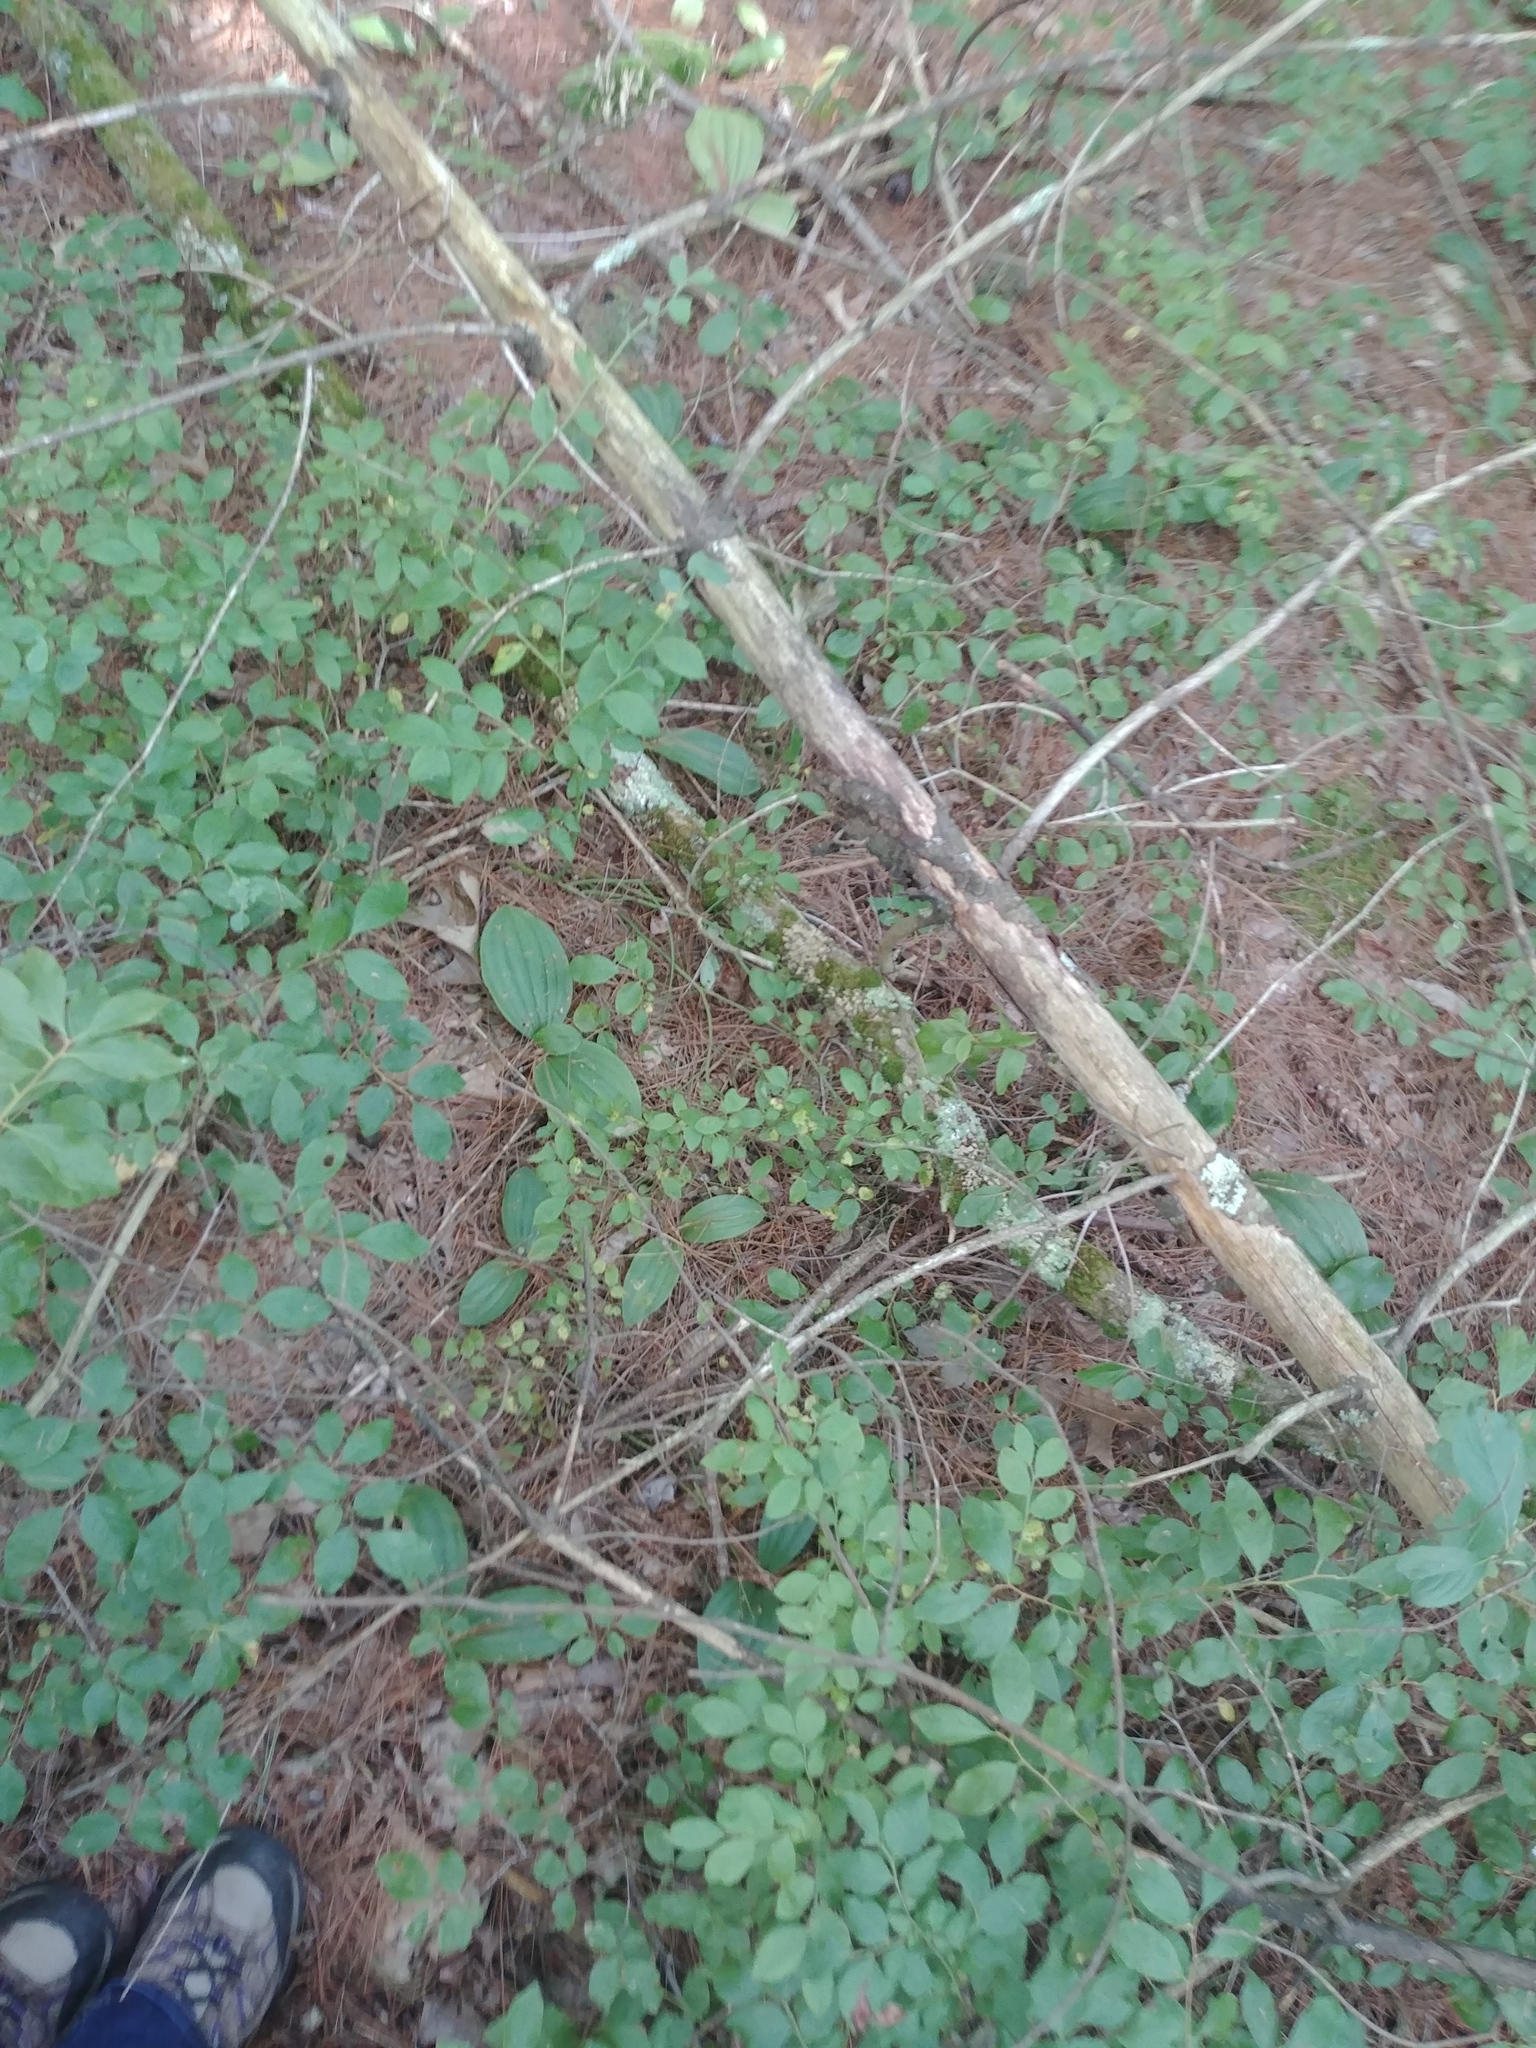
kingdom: Plantae
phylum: Tracheophyta
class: Liliopsida
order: Asparagales
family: Orchidaceae
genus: Cypripedium
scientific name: Cypripedium acaule
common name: Pink lady's-slipper
